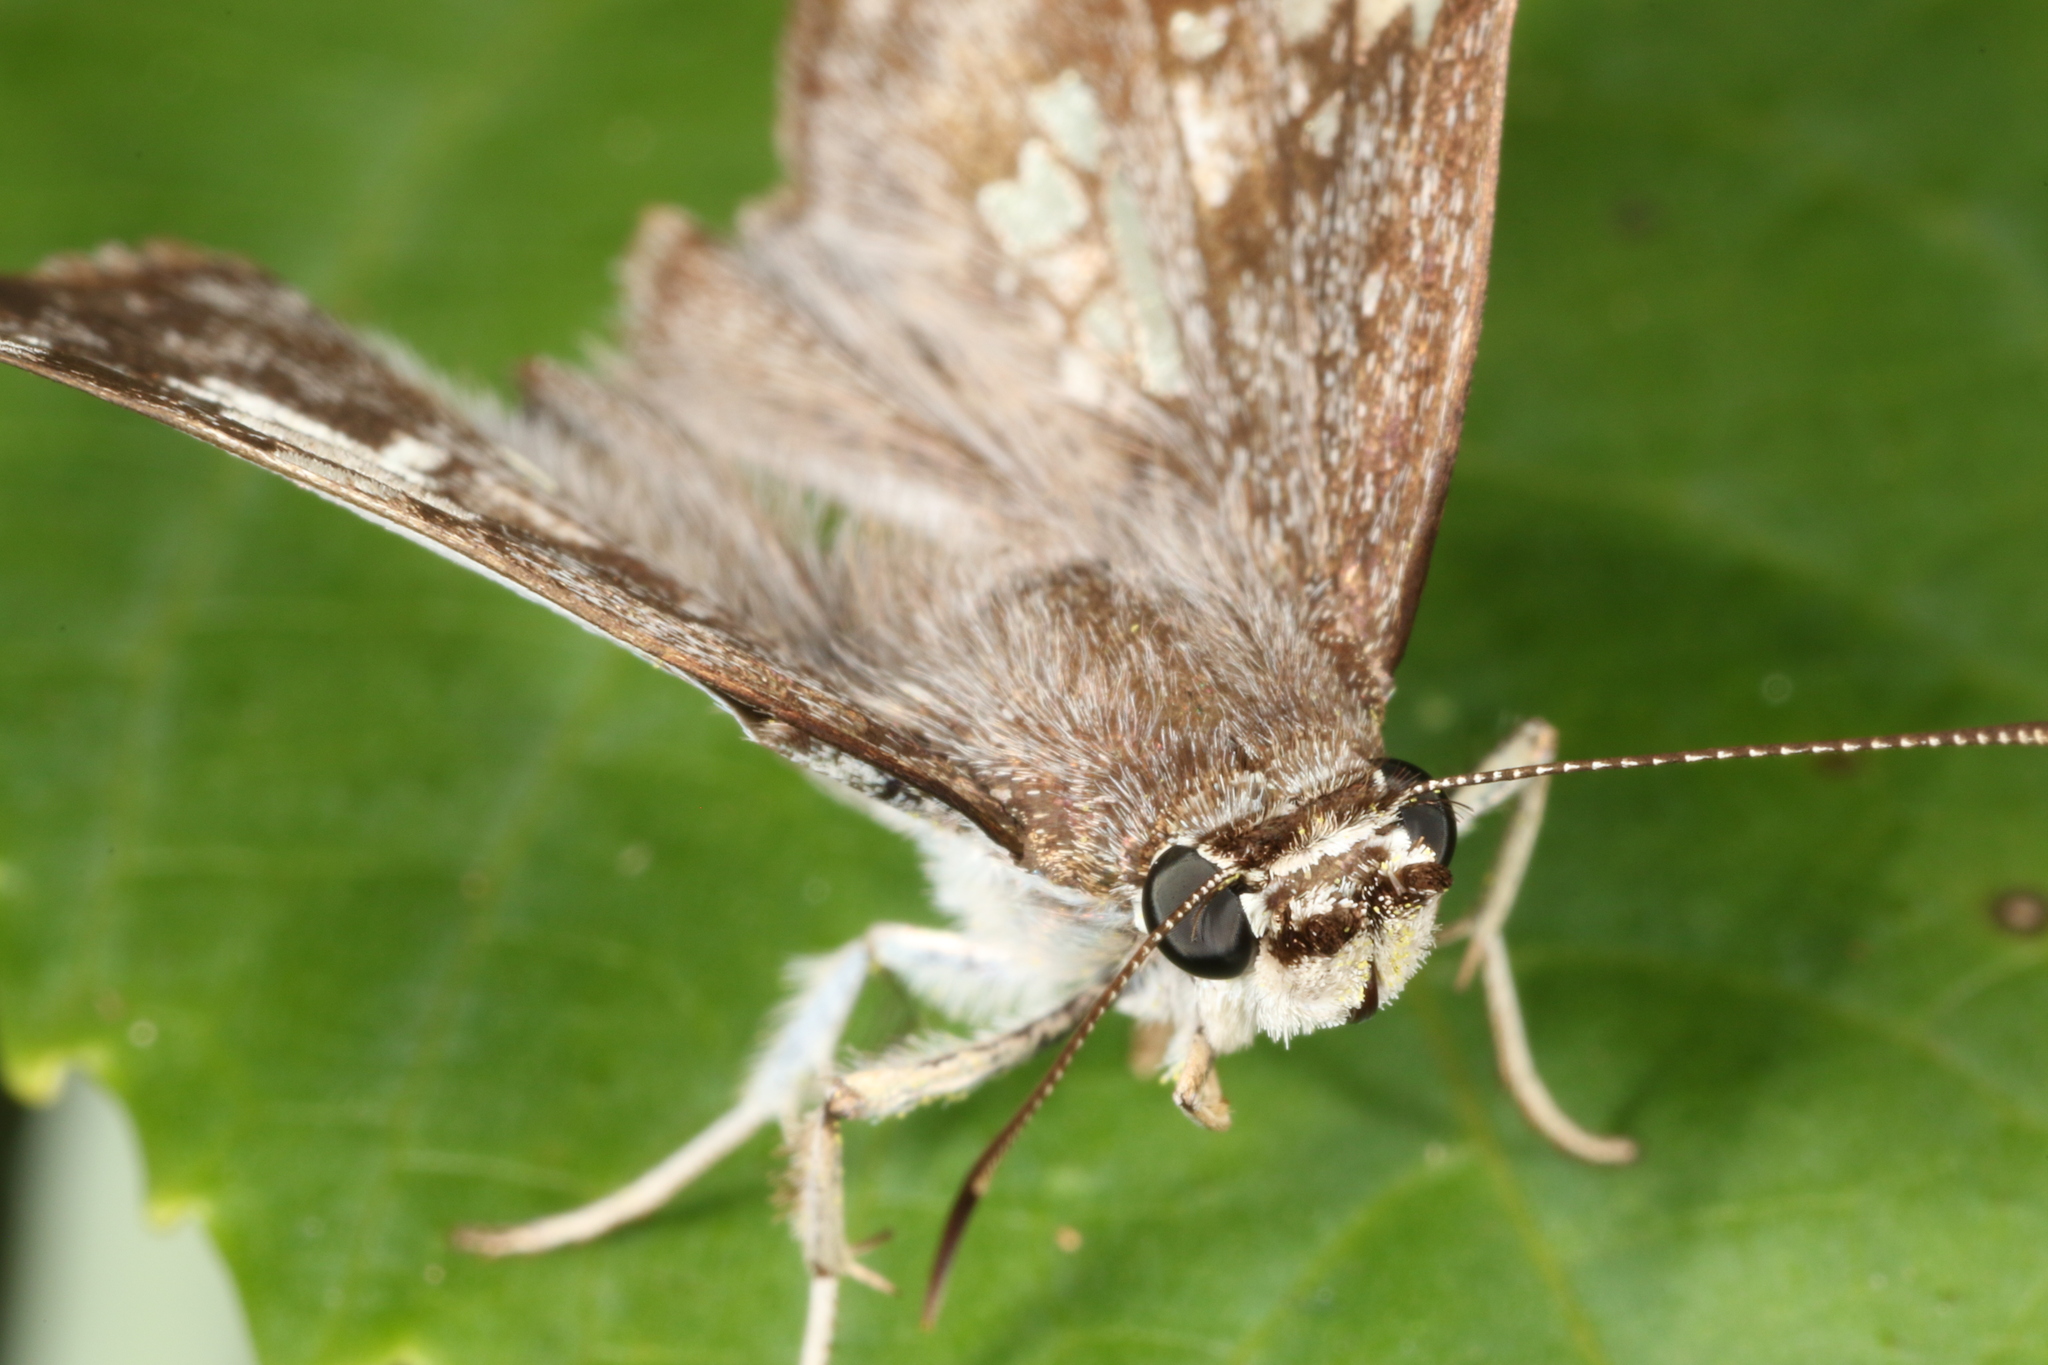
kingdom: Animalia
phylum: Arthropoda
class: Insecta
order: Lepidoptera
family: Hesperiidae
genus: Xenophanes
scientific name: Xenophanes tryxus
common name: Glassy-winged skipper
